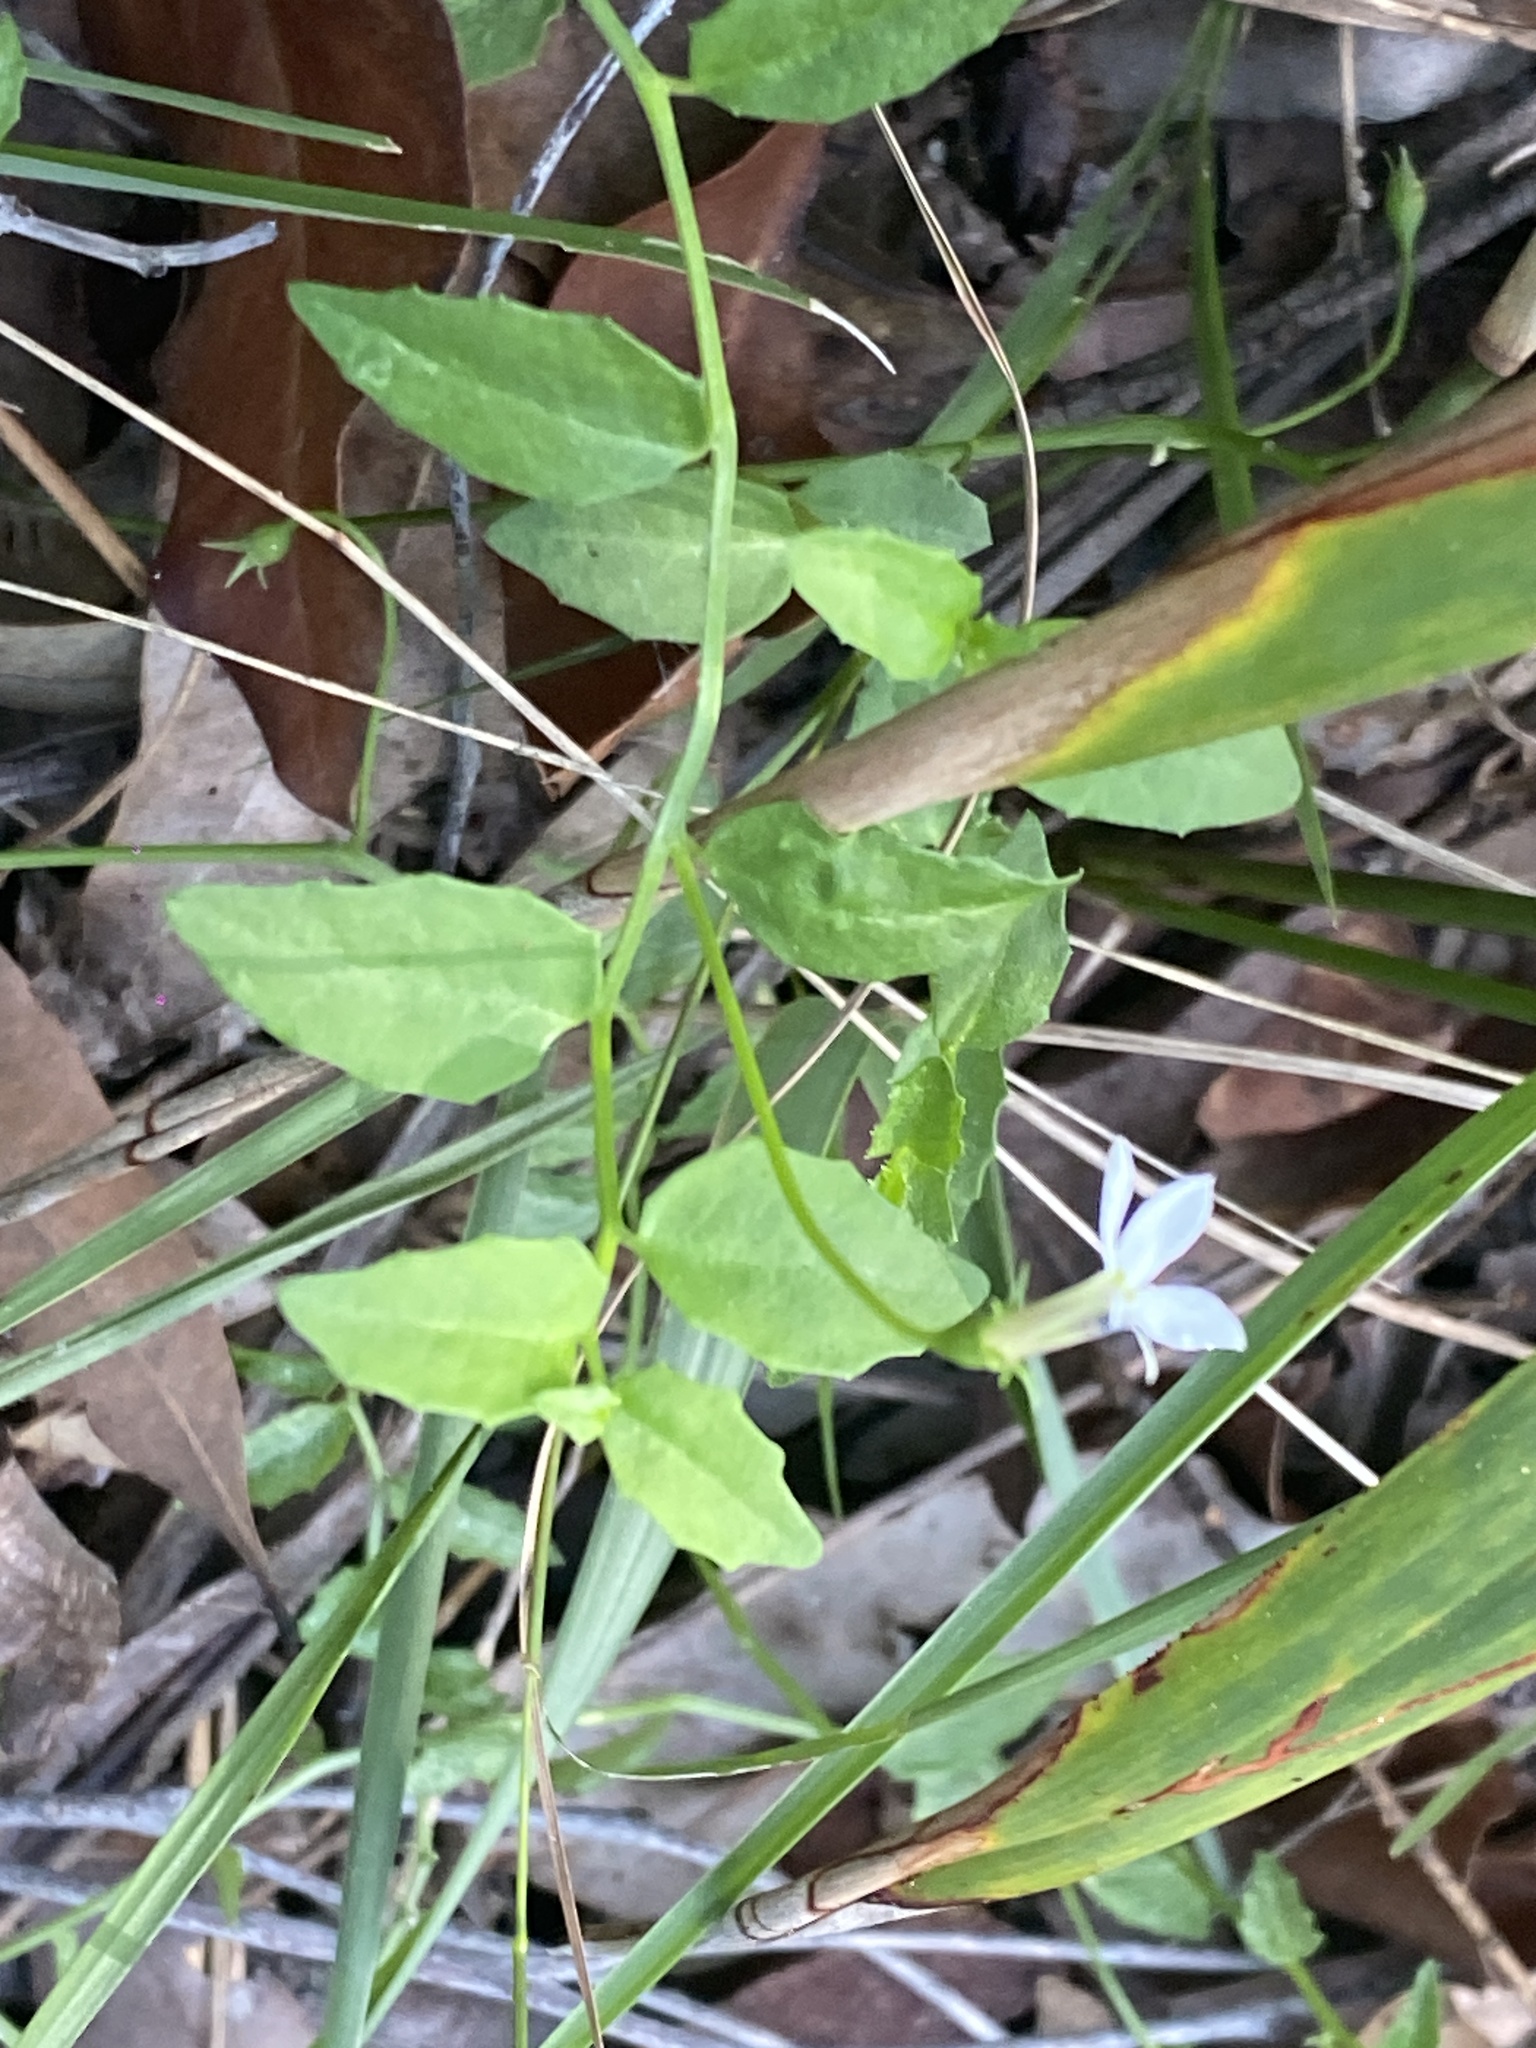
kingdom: Plantae
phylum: Tracheophyta
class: Magnoliopsida
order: Asterales
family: Campanulaceae
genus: Lobelia
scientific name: Lobelia purpurascens
